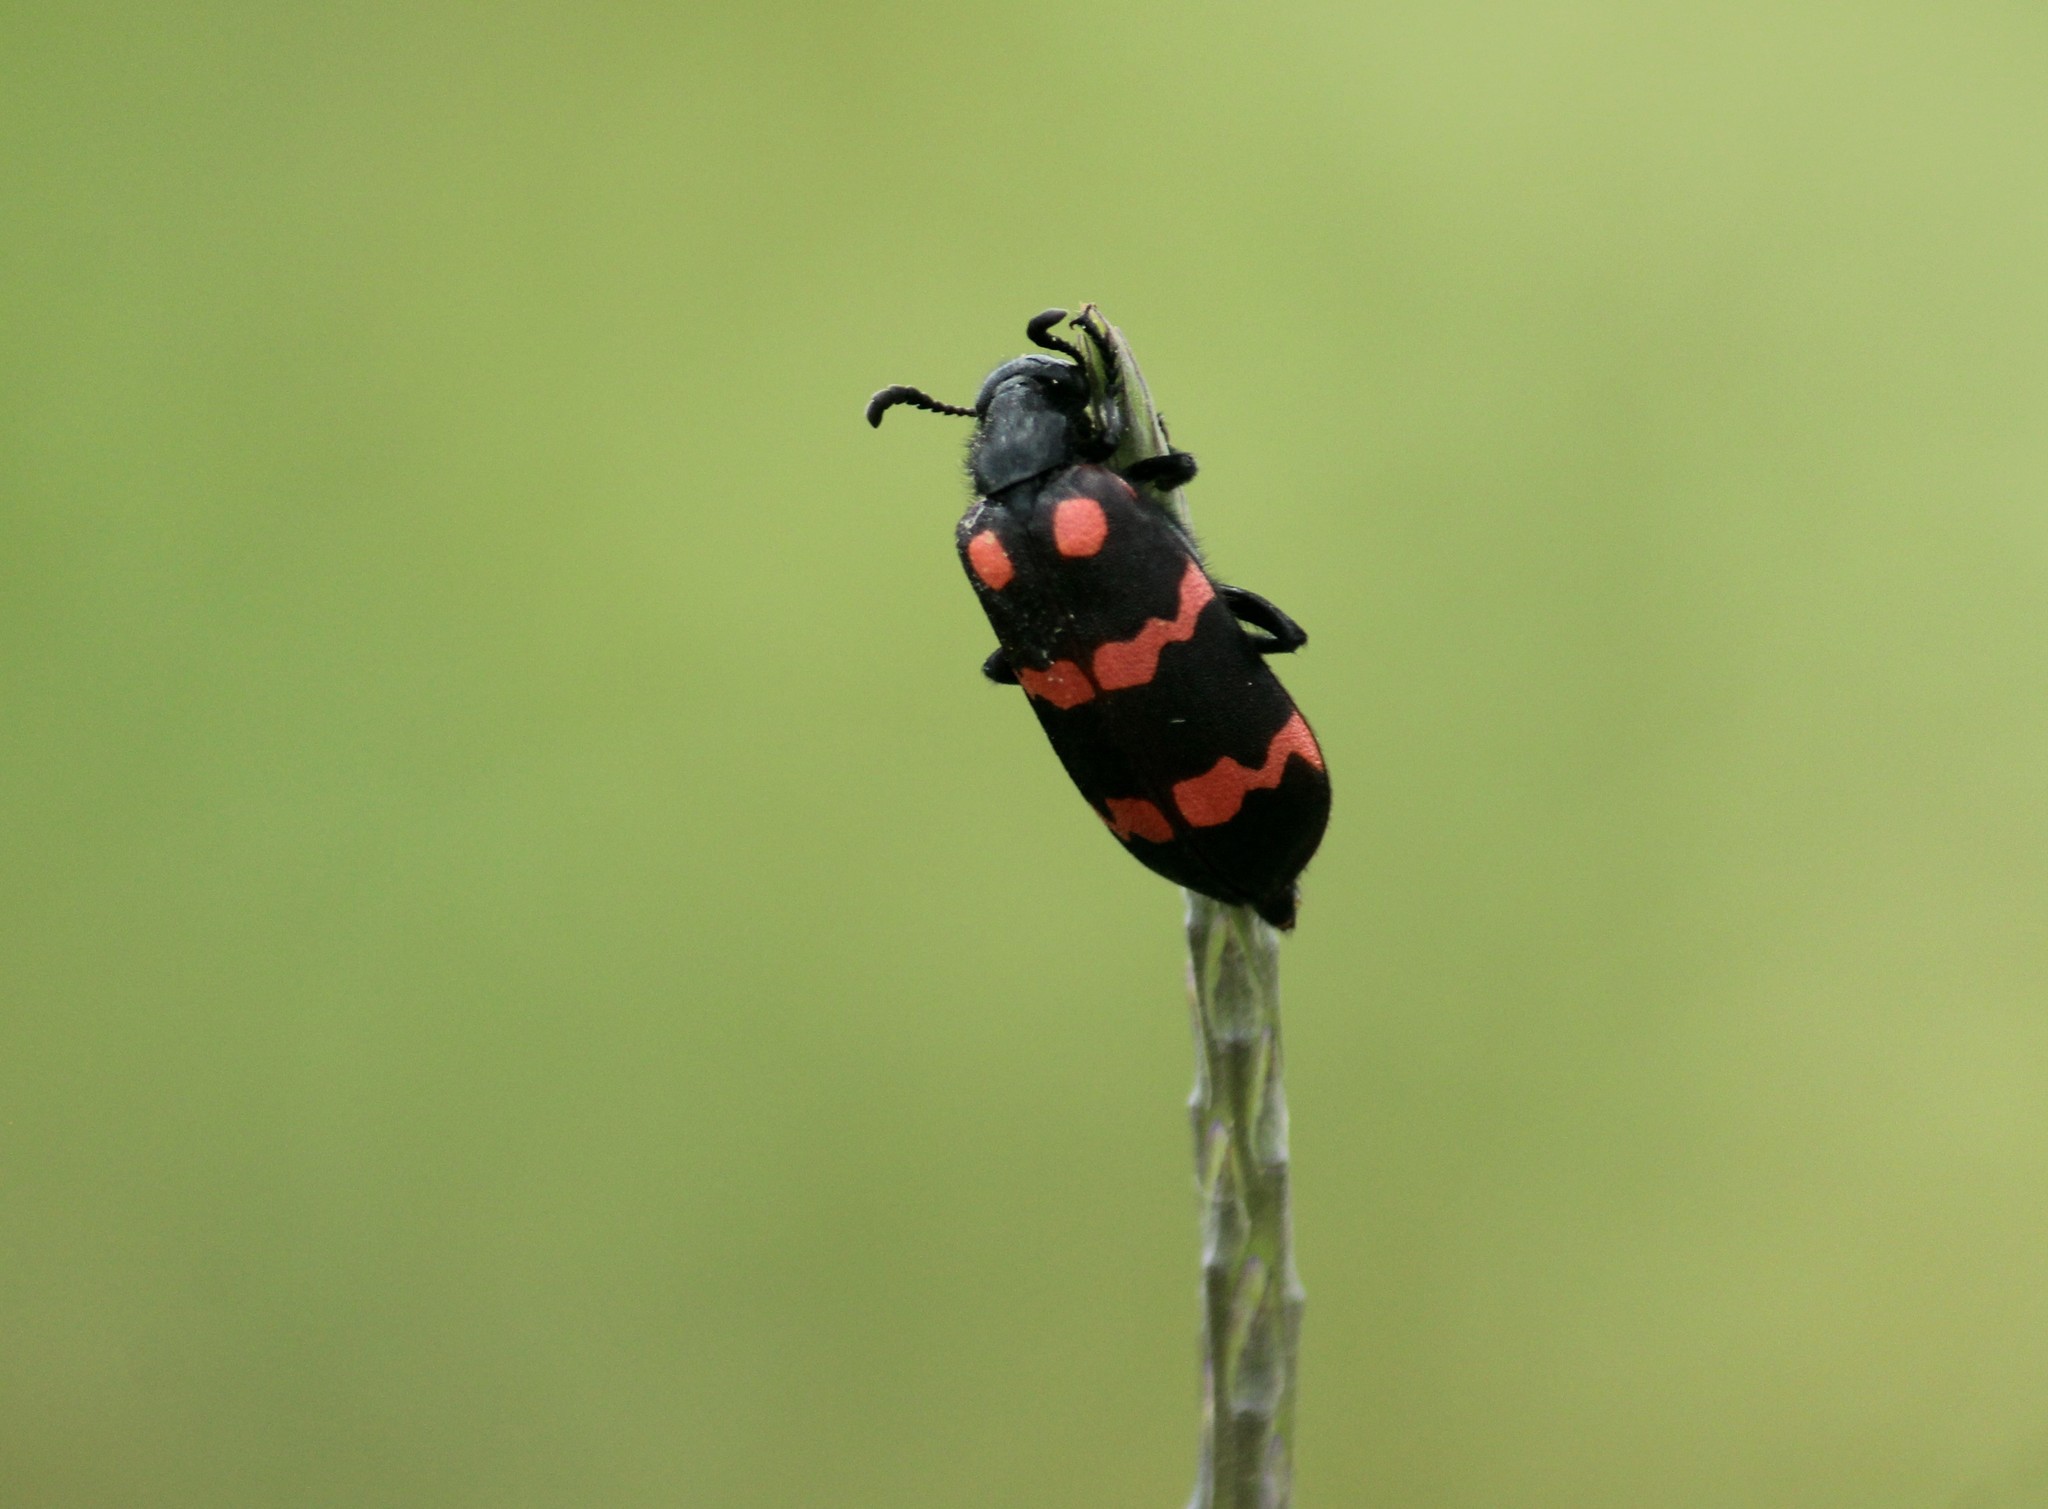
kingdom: Animalia
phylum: Arthropoda
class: Insecta
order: Coleoptera
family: Meloidae
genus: Hycleus
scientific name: Hycleus biundulatus
